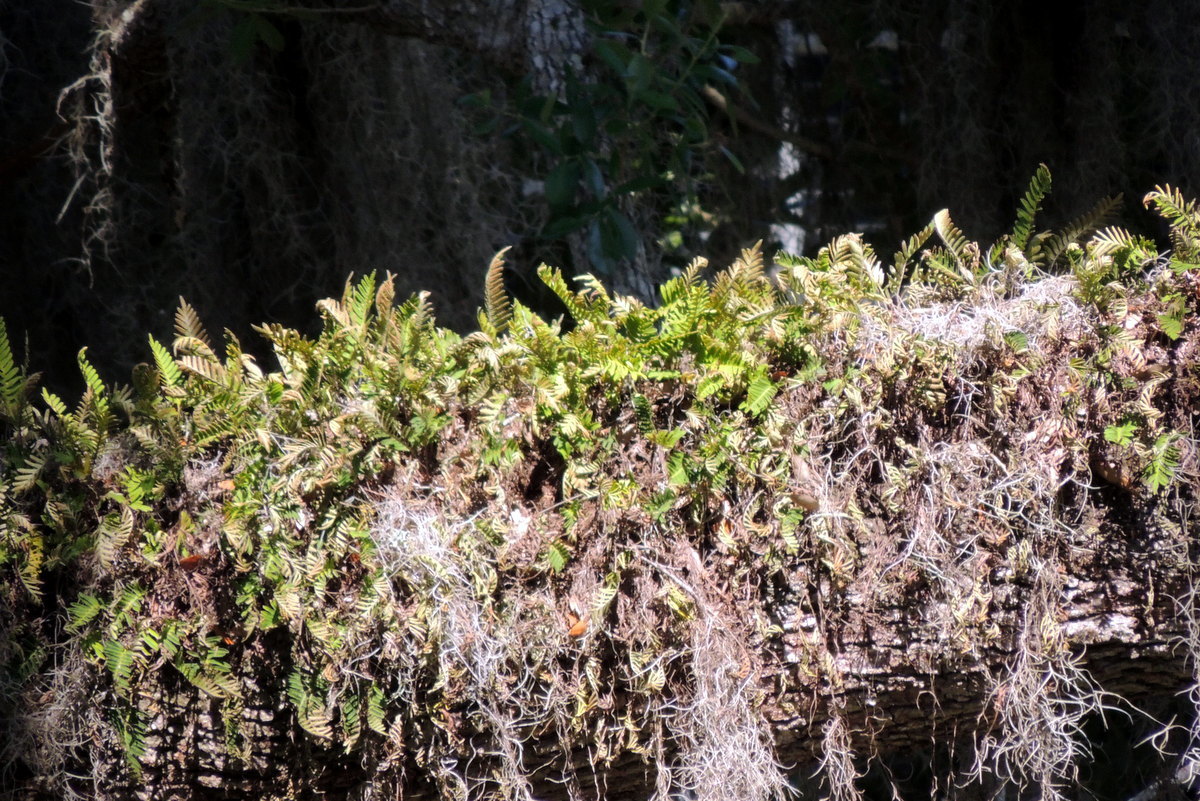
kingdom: Plantae
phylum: Tracheophyta
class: Polypodiopsida
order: Polypodiales
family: Polypodiaceae
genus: Pleopeltis
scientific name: Pleopeltis michauxiana
